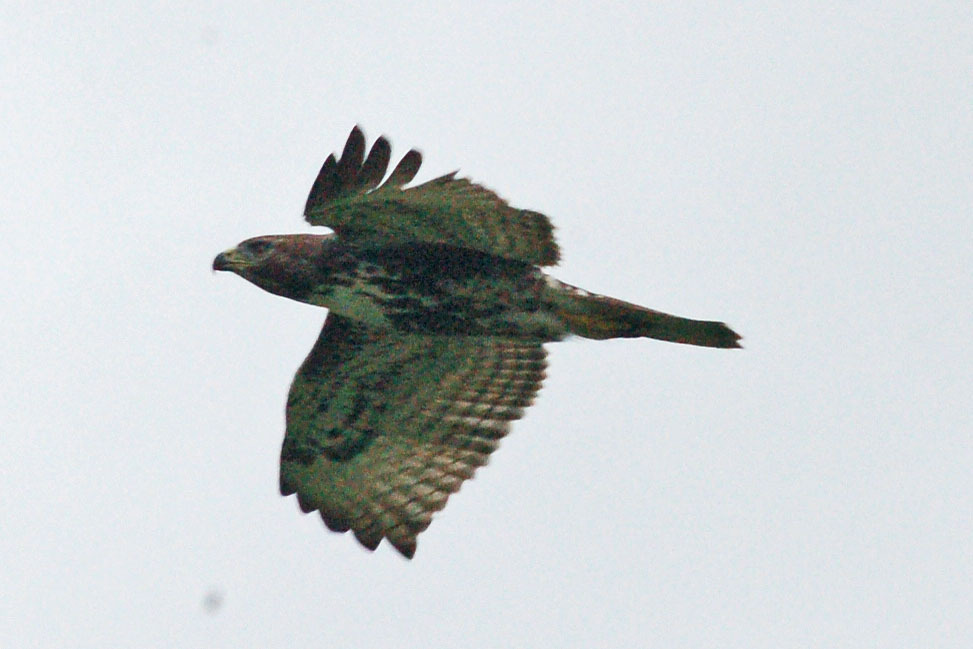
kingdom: Animalia
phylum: Chordata
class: Aves
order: Accipitriformes
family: Accipitridae
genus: Buteo
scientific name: Buteo jamaicensis
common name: Red-tailed hawk
